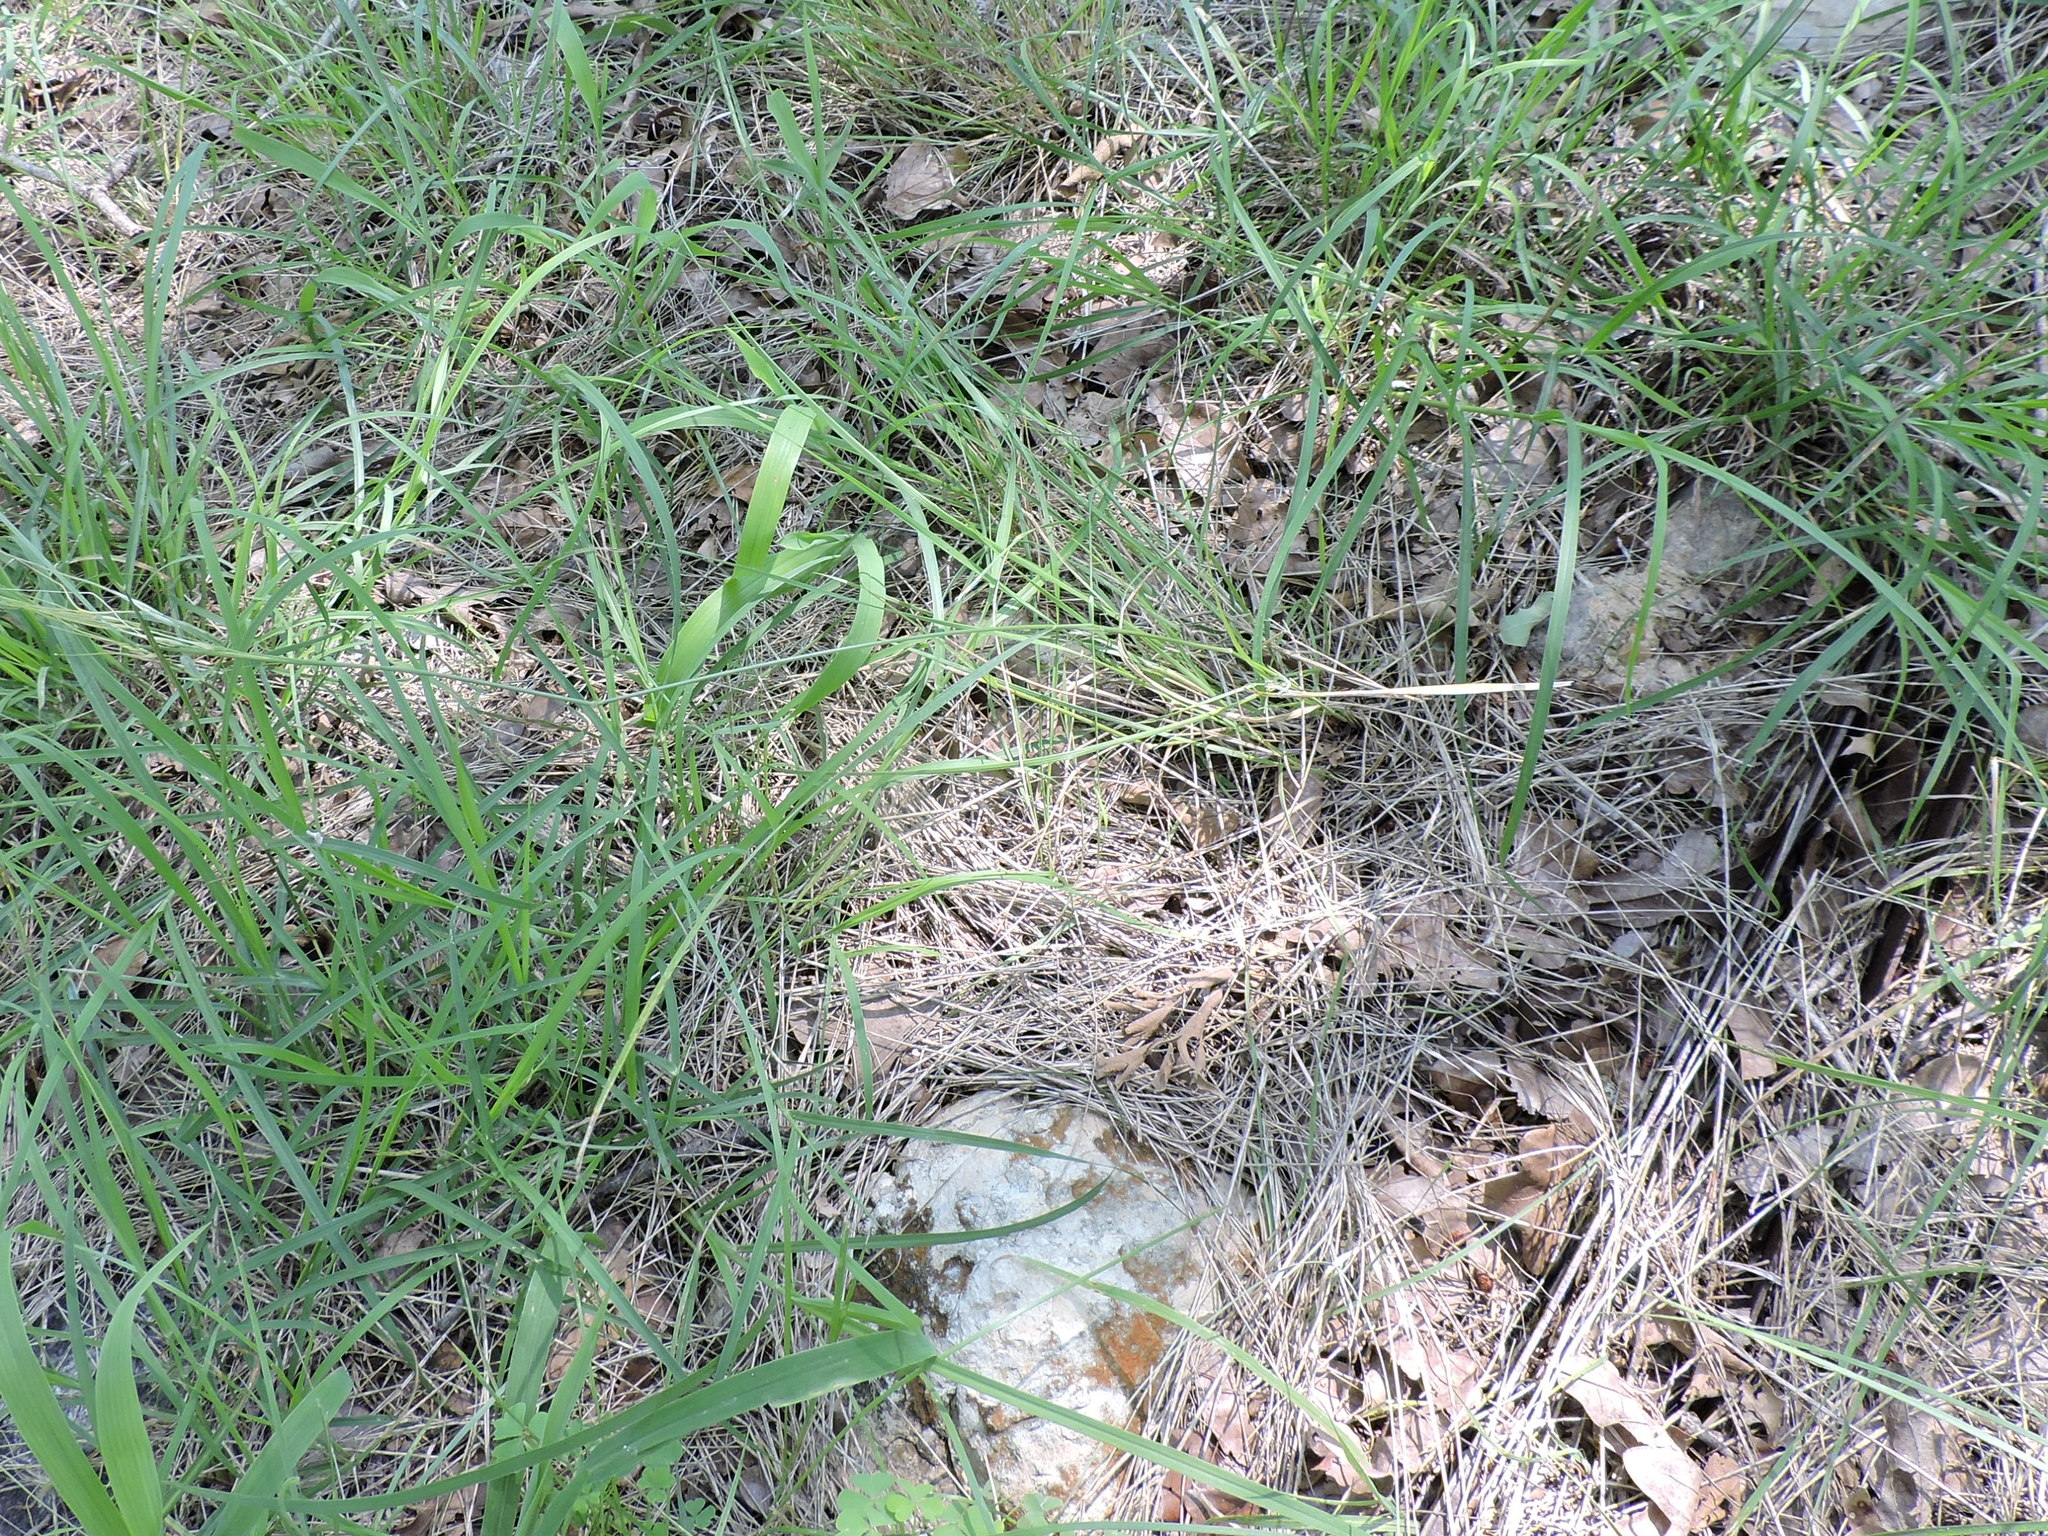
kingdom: Plantae
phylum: Tracheophyta
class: Liliopsida
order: Poales
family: Poaceae
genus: Nassella
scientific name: Nassella leucotricha
